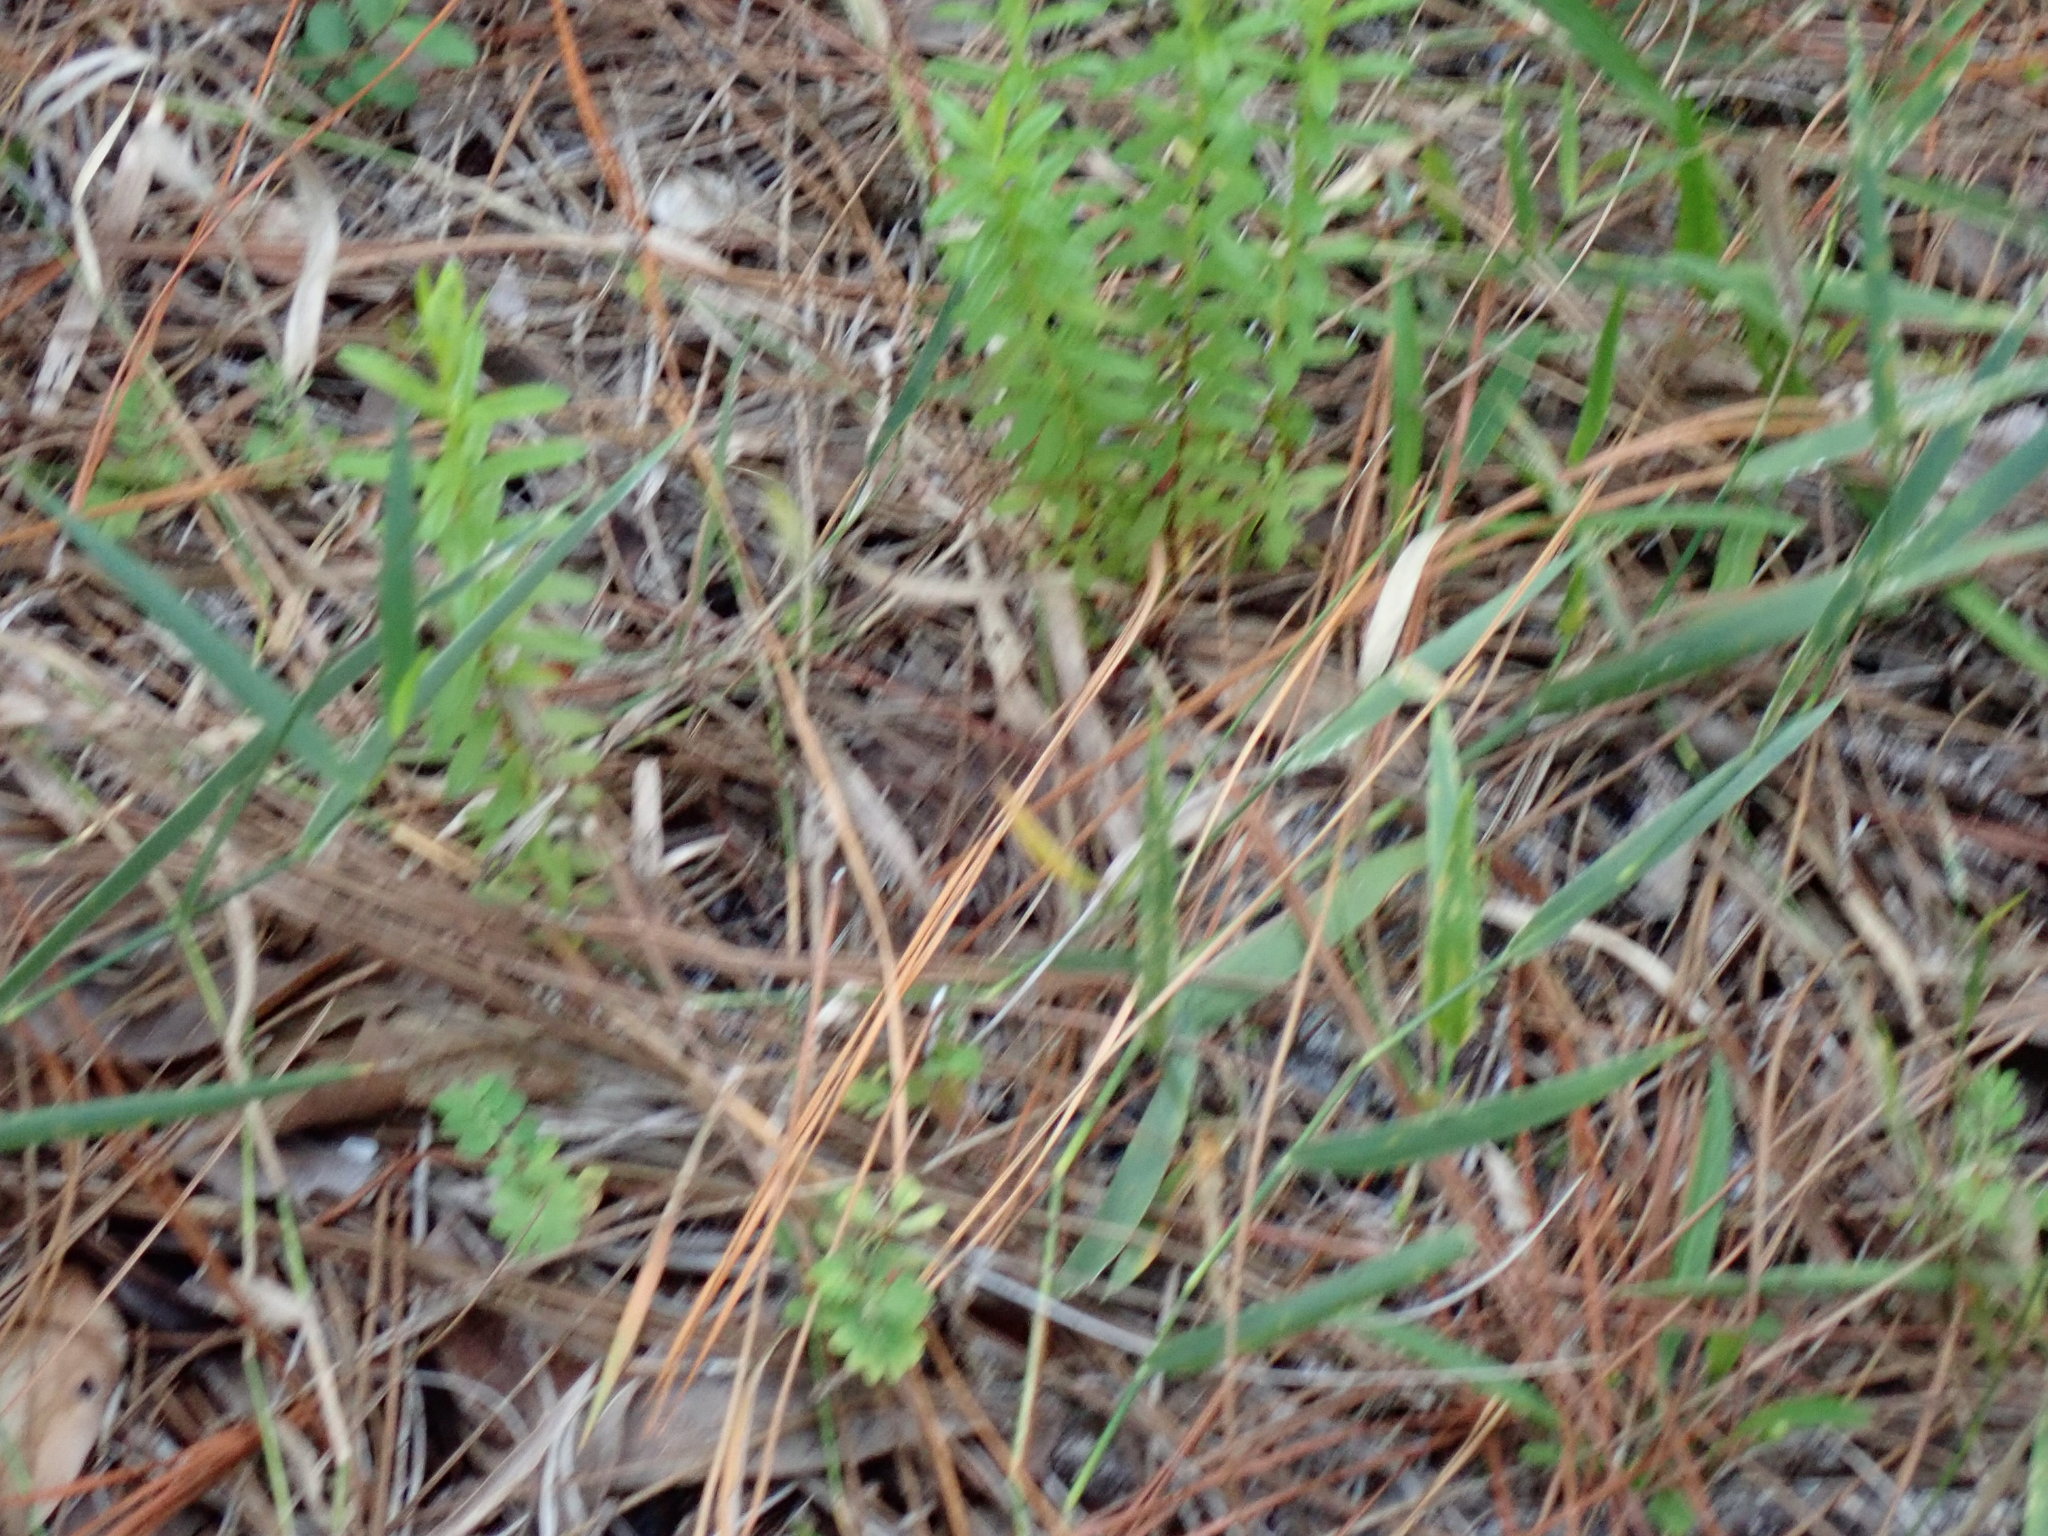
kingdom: Animalia
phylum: Arthropoda
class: Insecta
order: Lepidoptera
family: Pieridae
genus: Eurema
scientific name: Eurema daira
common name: Barred sulphur
